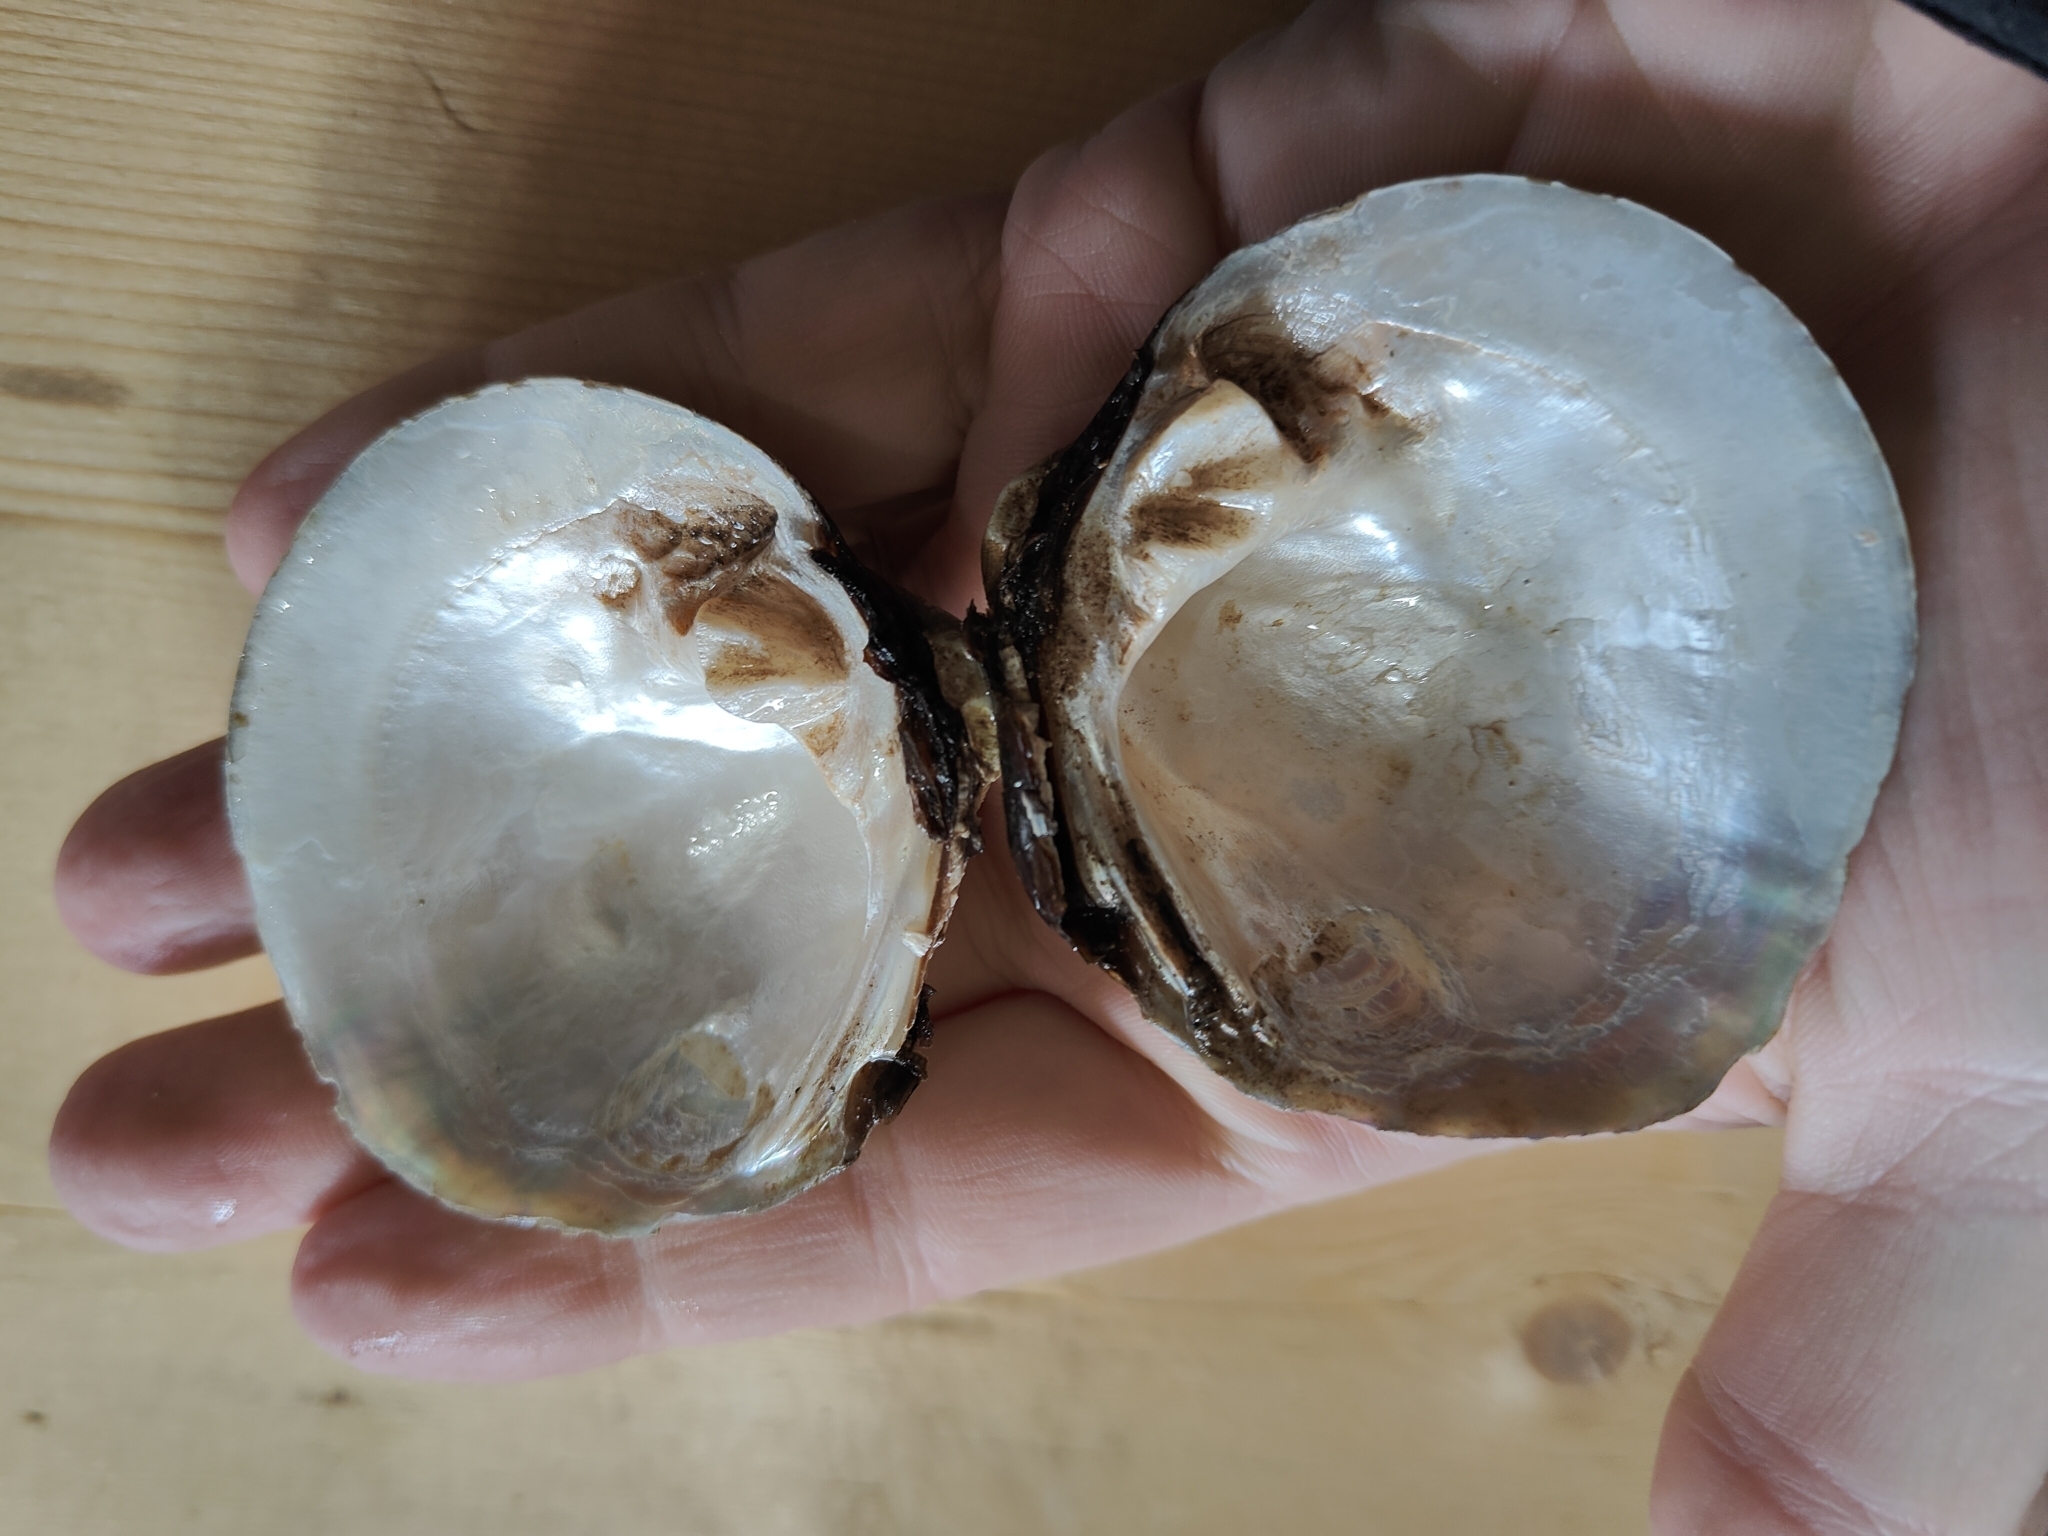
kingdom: Animalia
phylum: Mollusca
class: Bivalvia
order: Unionida
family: Unionidae
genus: Cyclonaias
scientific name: Cyclonaias pustulosa
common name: Pimpleback
